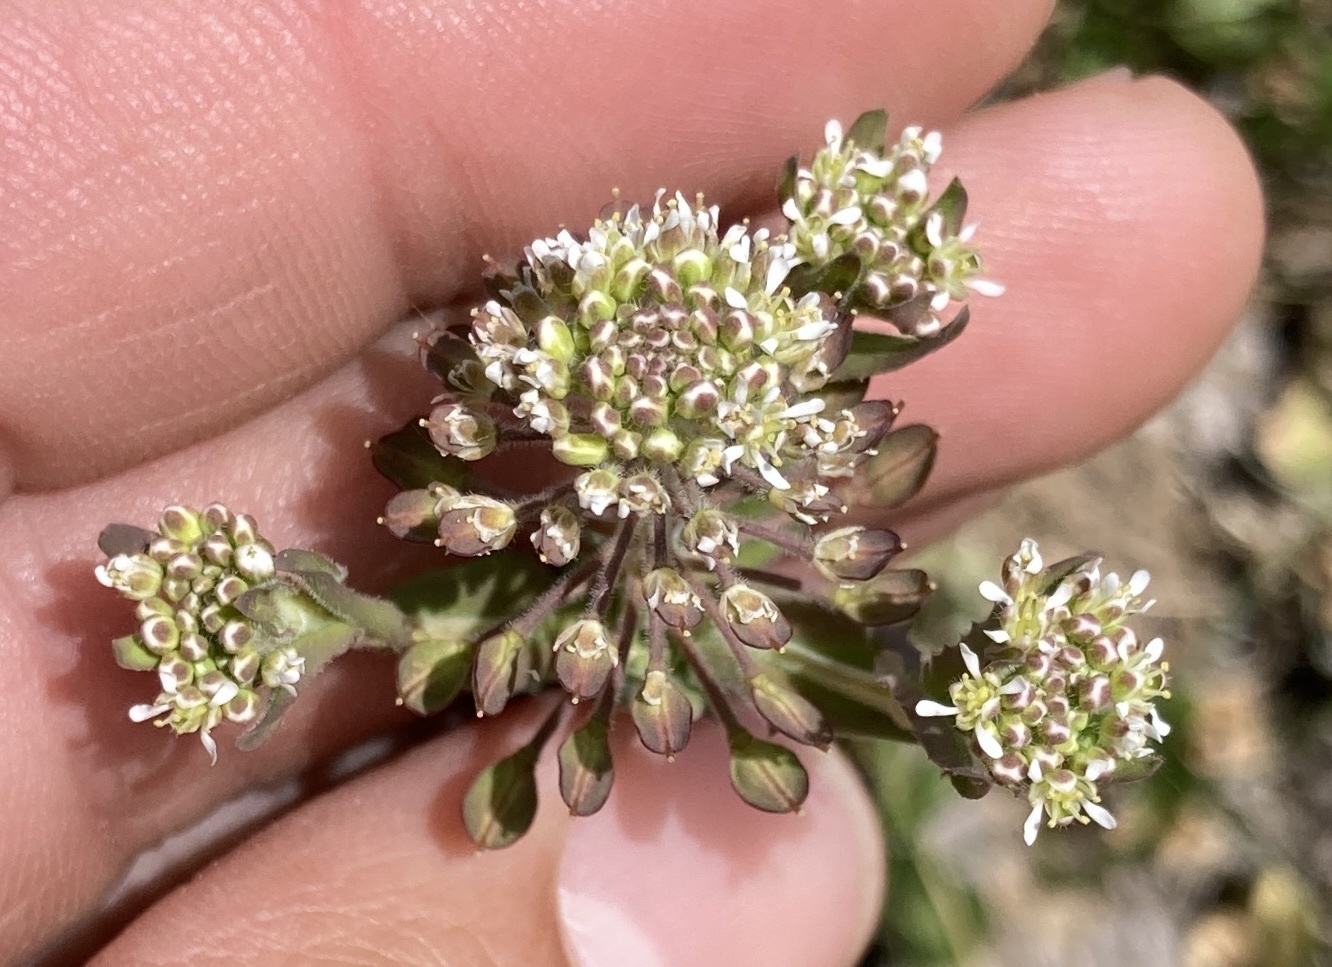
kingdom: Plantae
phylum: Tracheophyta
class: Magnoliopsida
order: Brassicales
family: Brassicaceae
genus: Lepidium
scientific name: Lepidium campestre
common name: Field pepperwort
